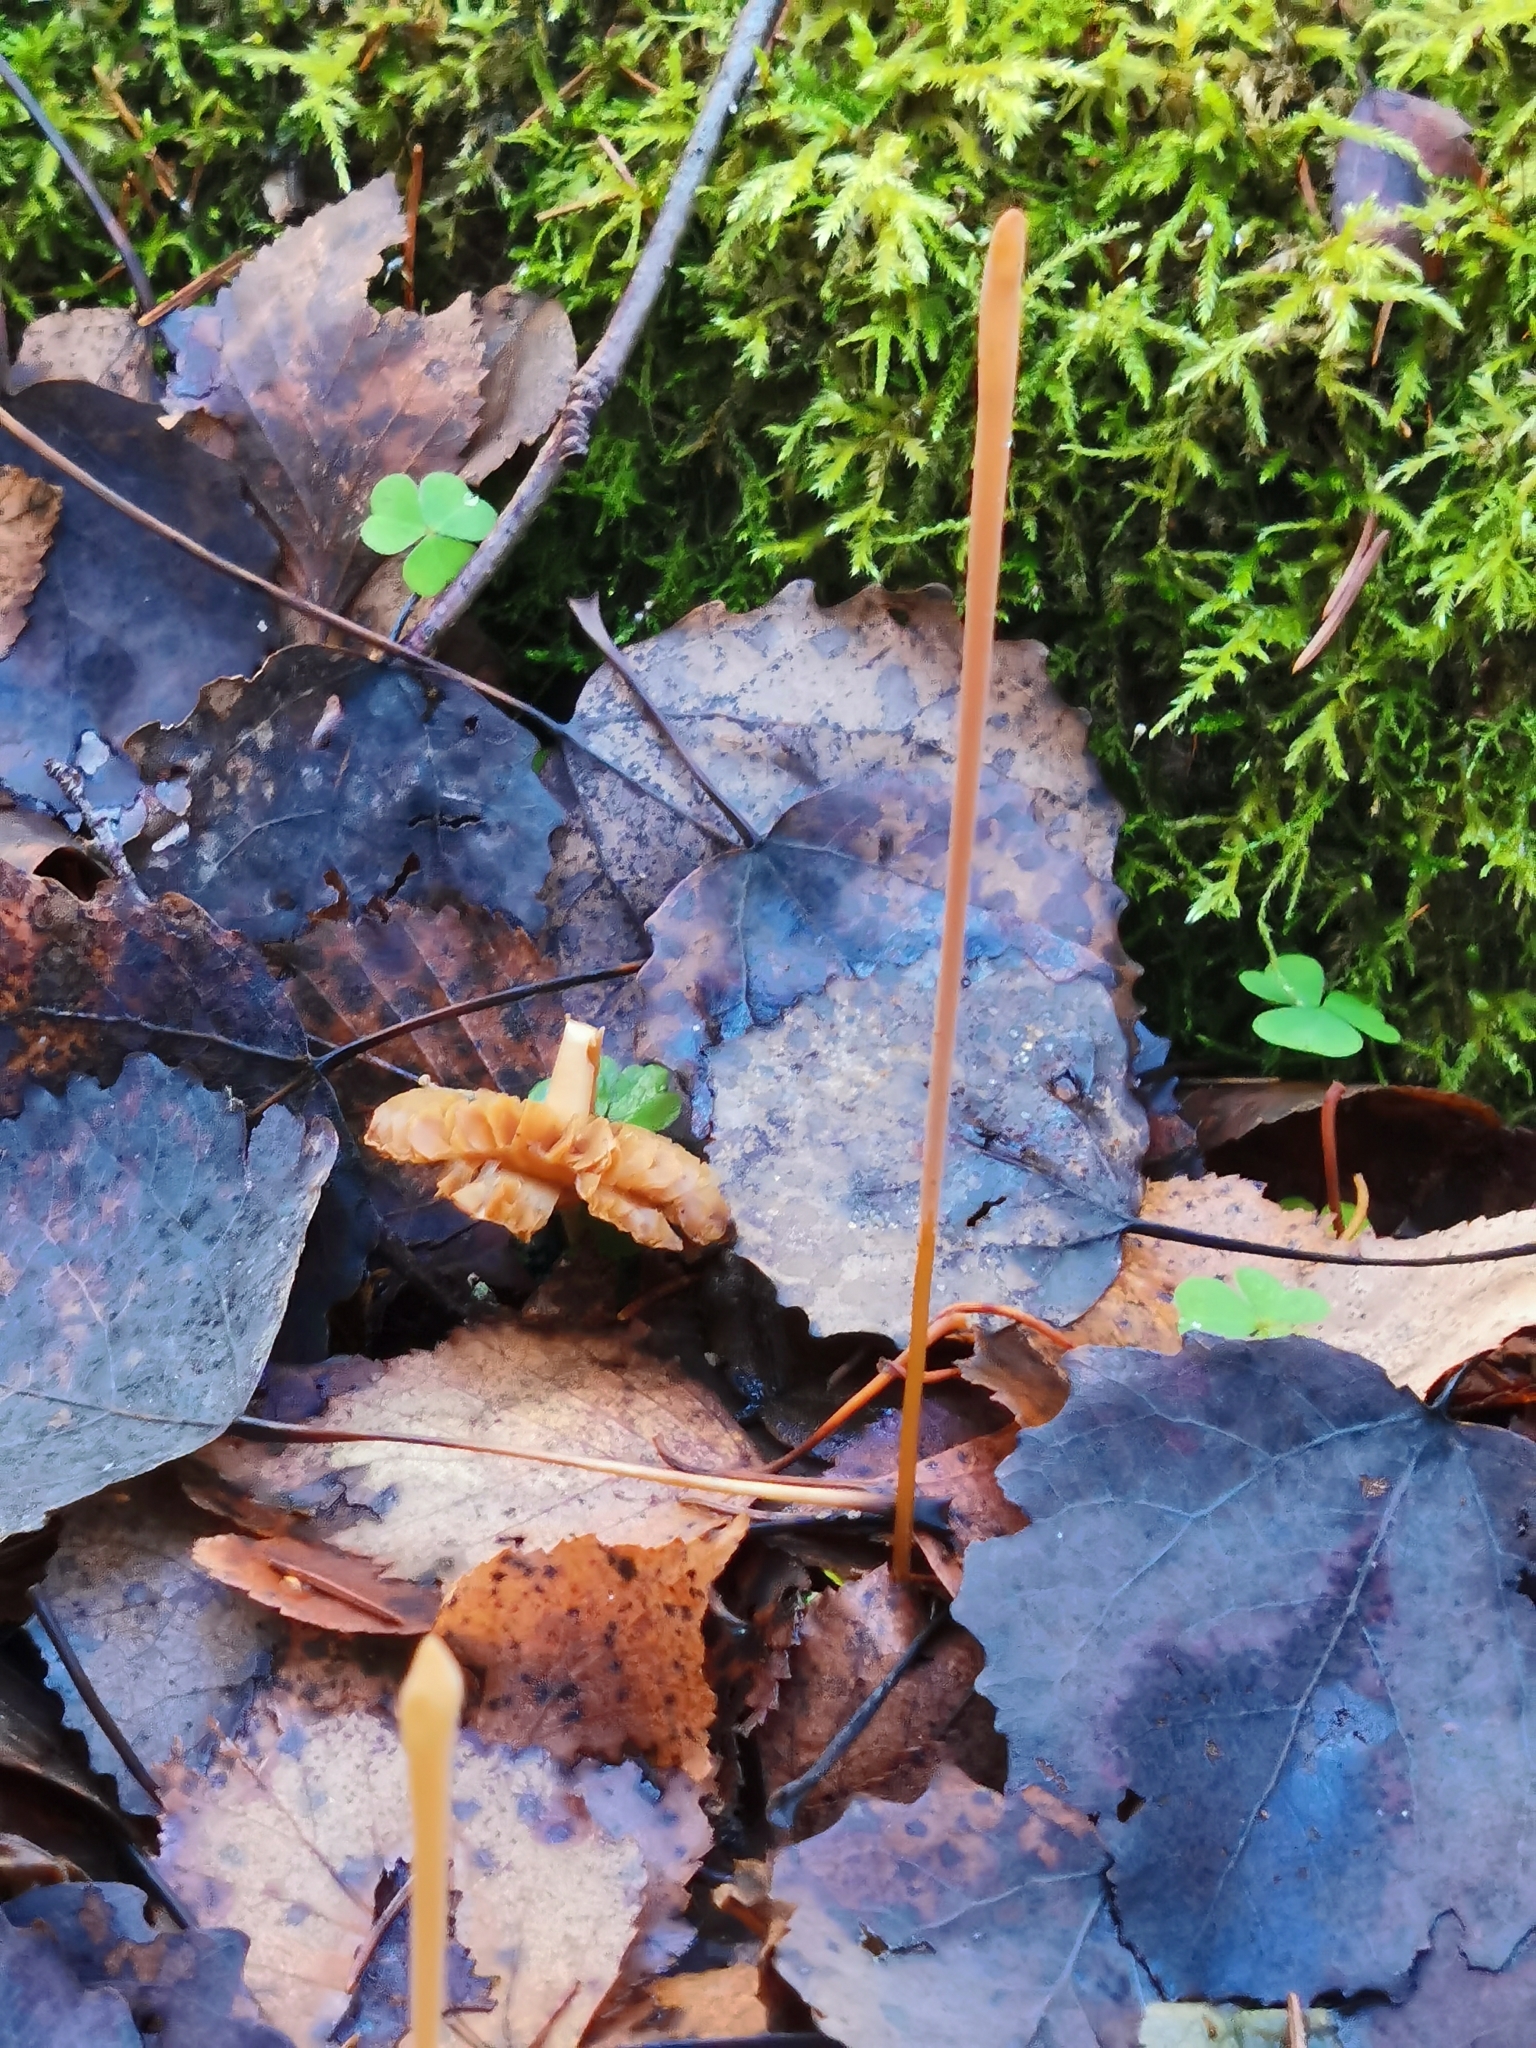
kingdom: Fungi
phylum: Basidiomycota
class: Agaricomycetes
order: Agaricales
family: Typhulaceae
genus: Typhula
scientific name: Typhula fistulosa
